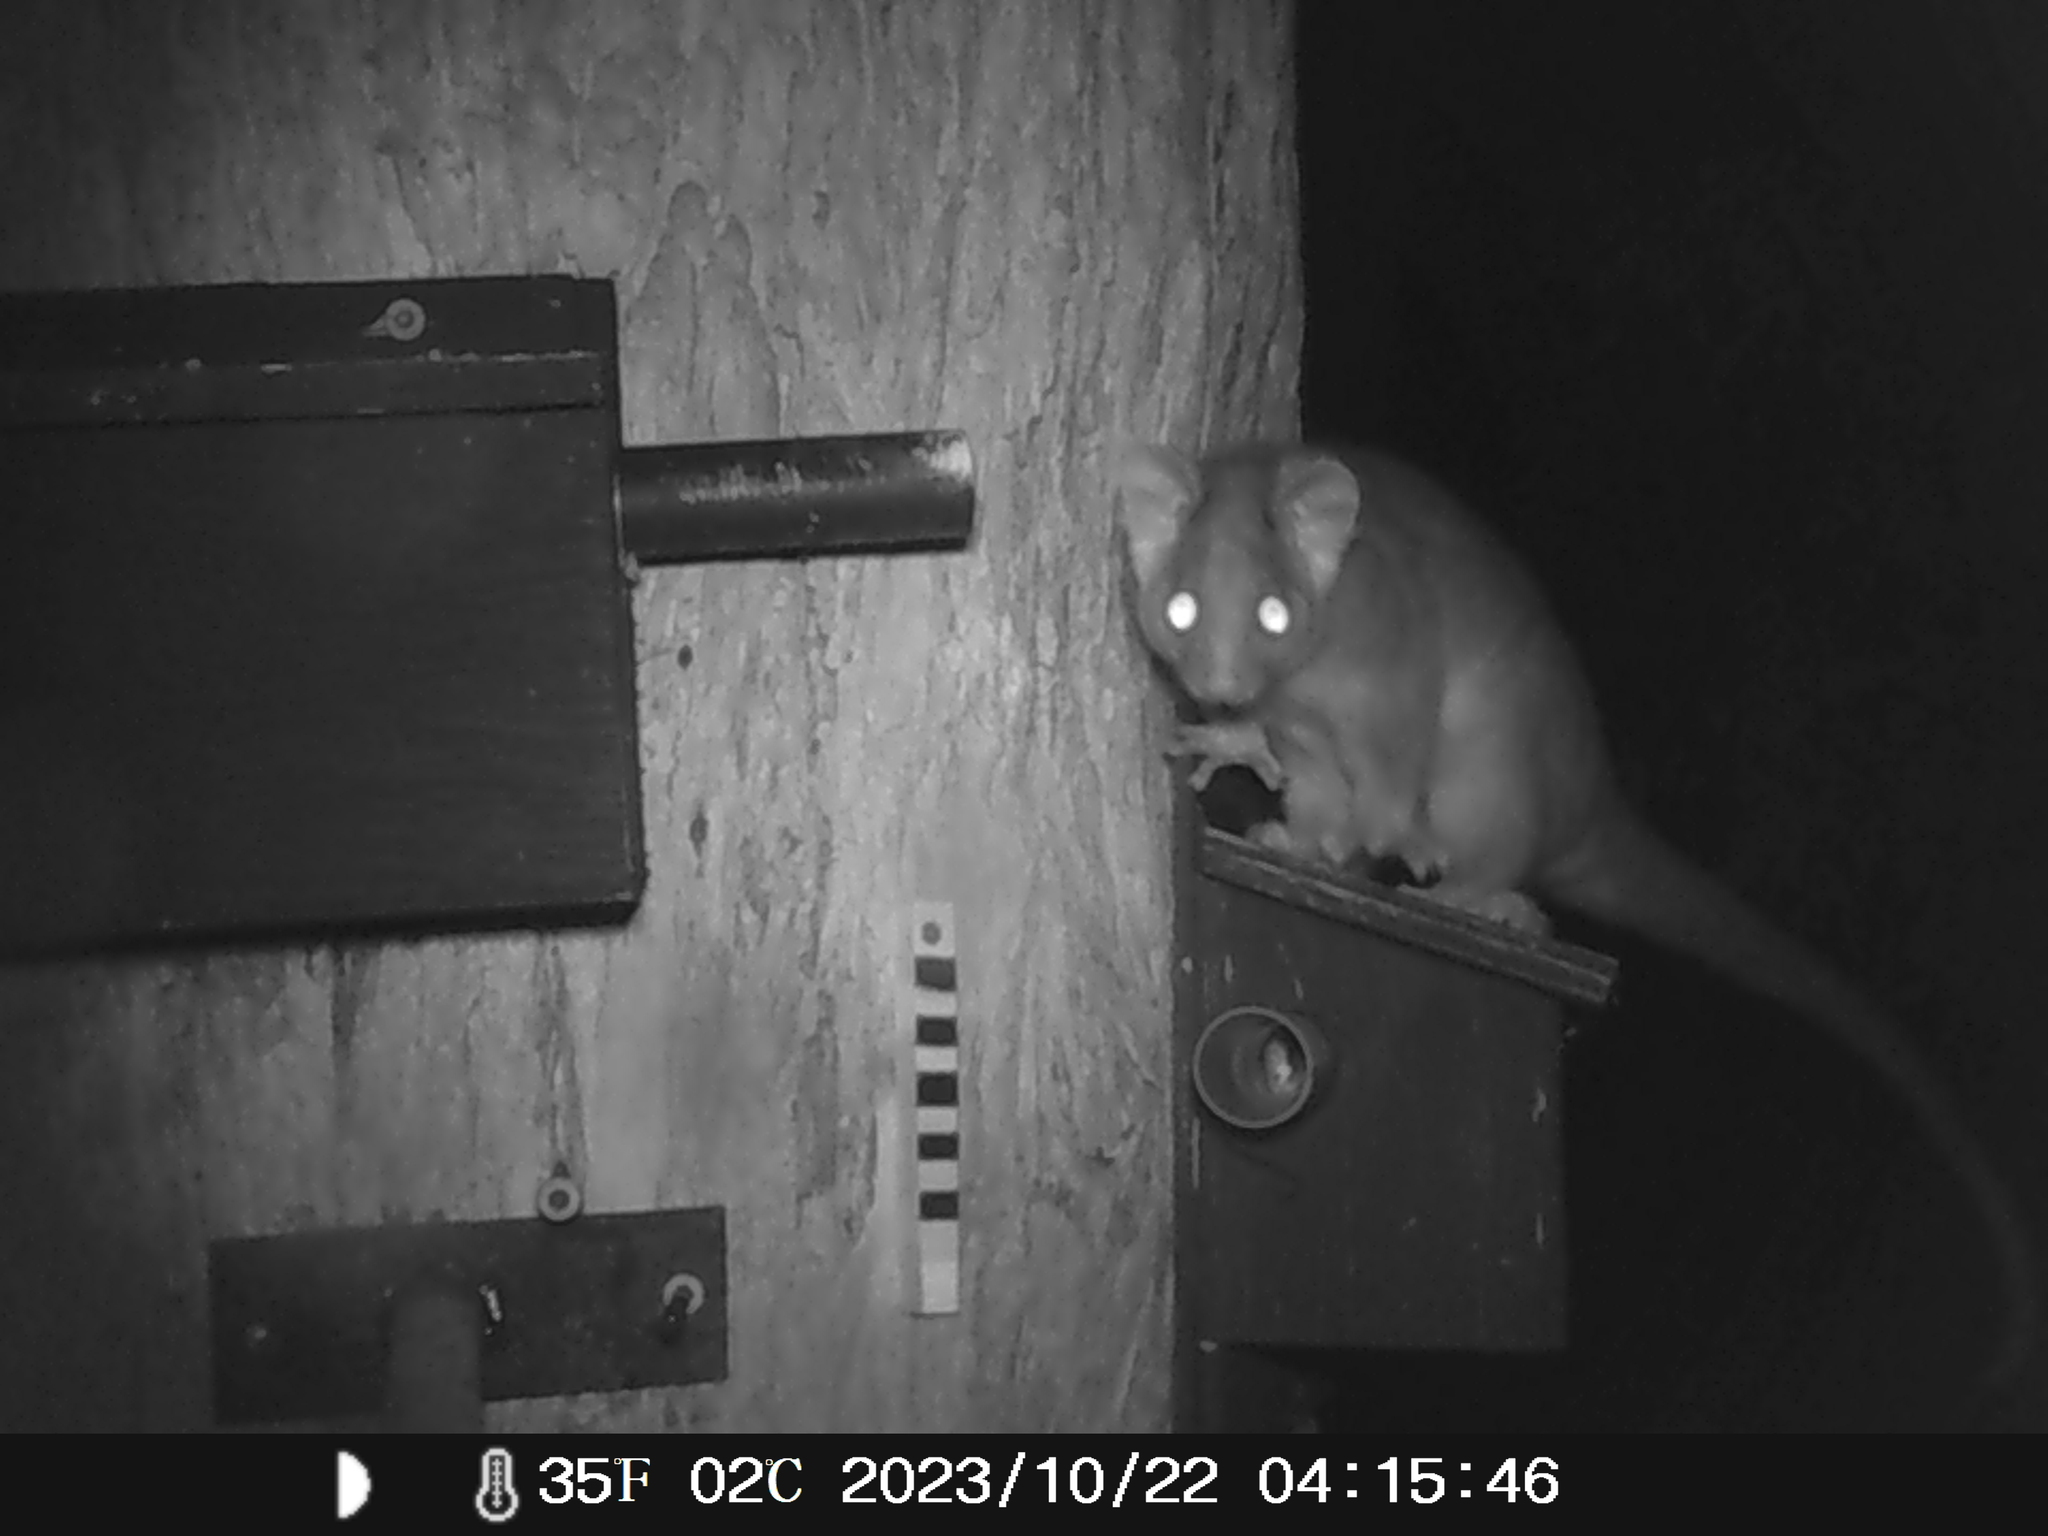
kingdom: Animalia
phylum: Chordata
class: Mammalia
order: Diprotodontia
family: Pseudocheiridae
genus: Pseudocheirus
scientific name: Pseudocheirus peregrinus
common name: Common ringtail possum
